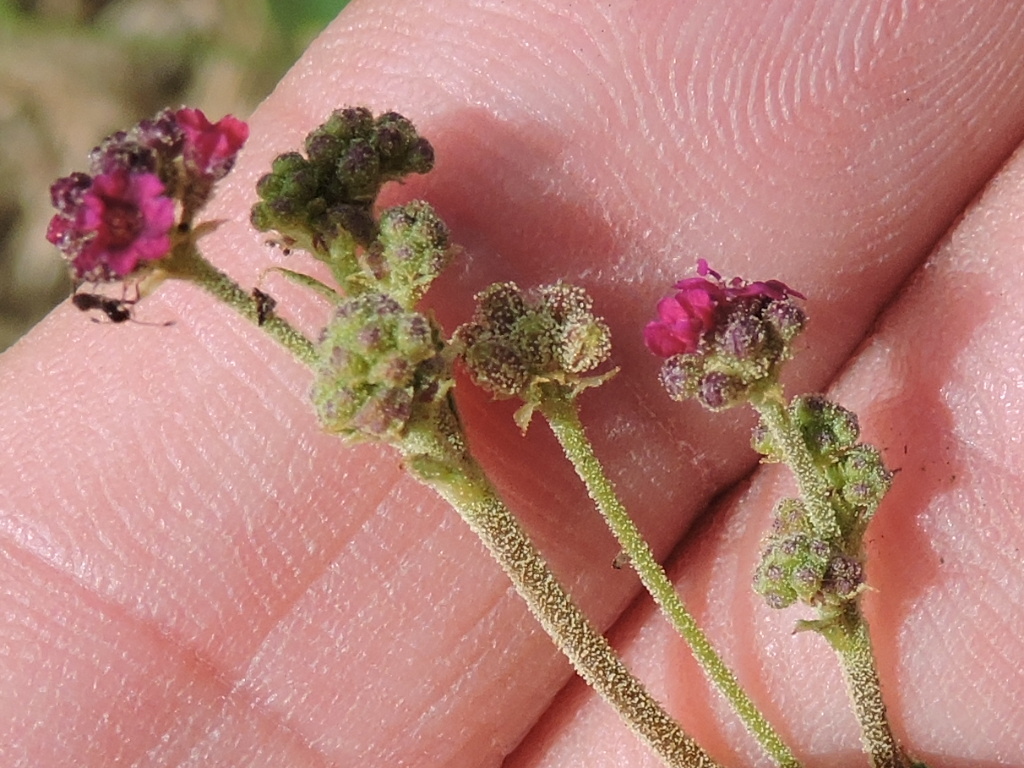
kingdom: Plantae
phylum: Tracheophyta
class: Magnoliopsida
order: Caryophyllales
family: Nyctaginaceae
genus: Boerhavia
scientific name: Boerhavia coccinea
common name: Scarlet spiderling
